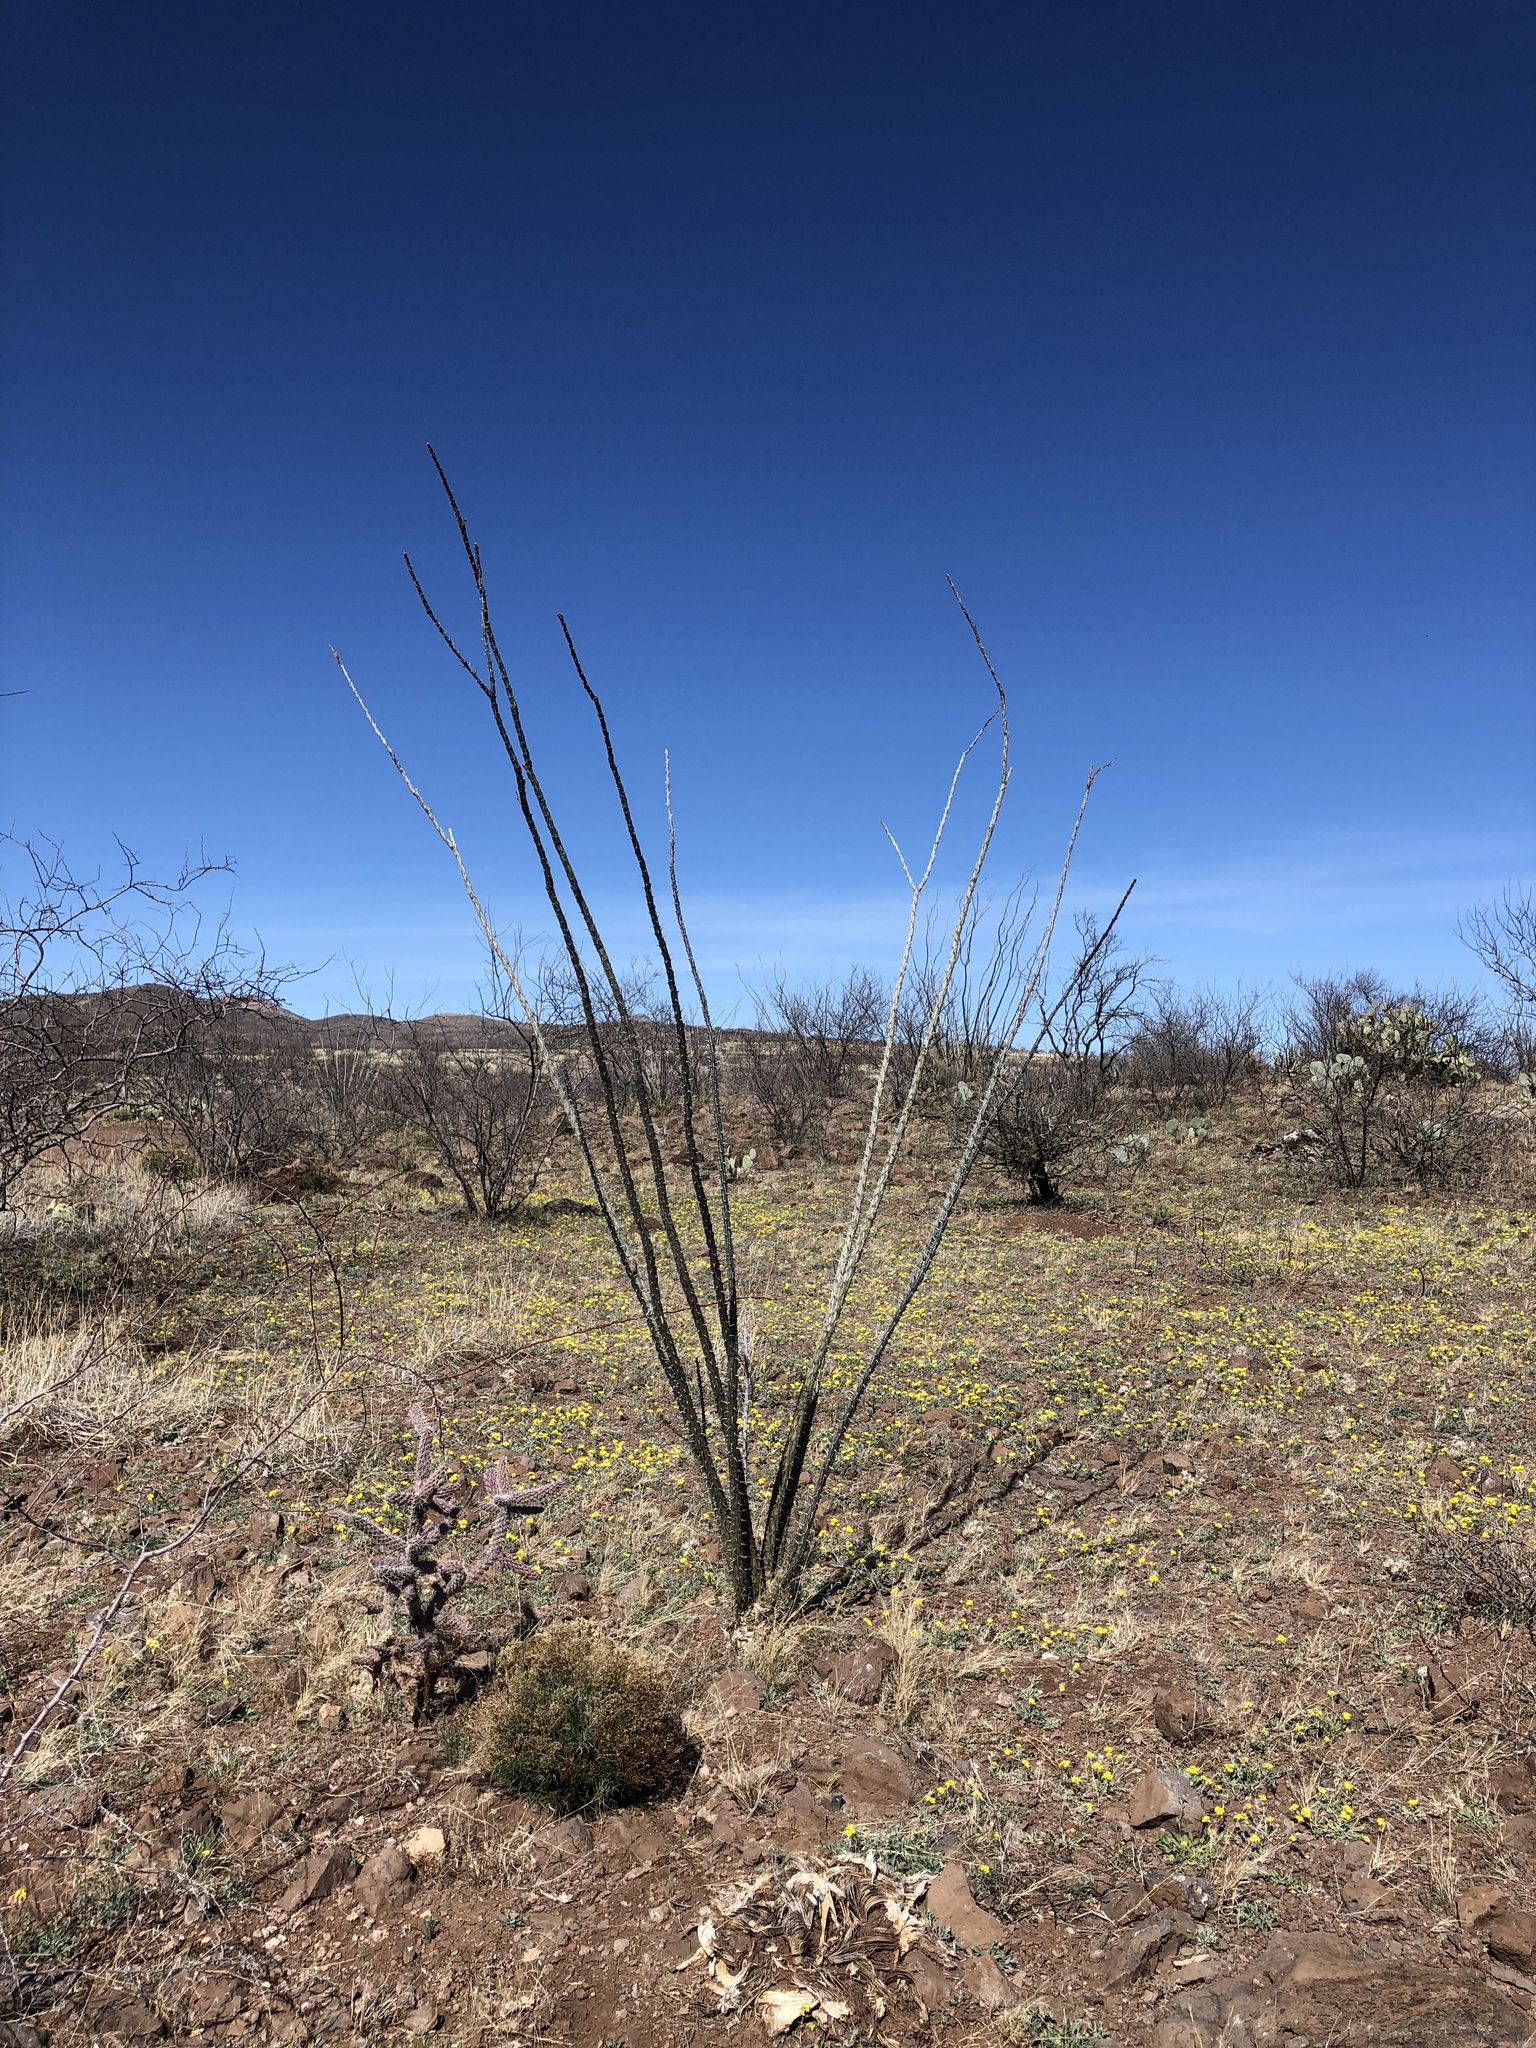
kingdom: Plantae
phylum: Tracheophyta
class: Magnoliopsida
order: Ericales
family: Fouquieriaceae
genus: Fouquieria
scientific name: Fouquieria splendens
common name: Vine-cactus
